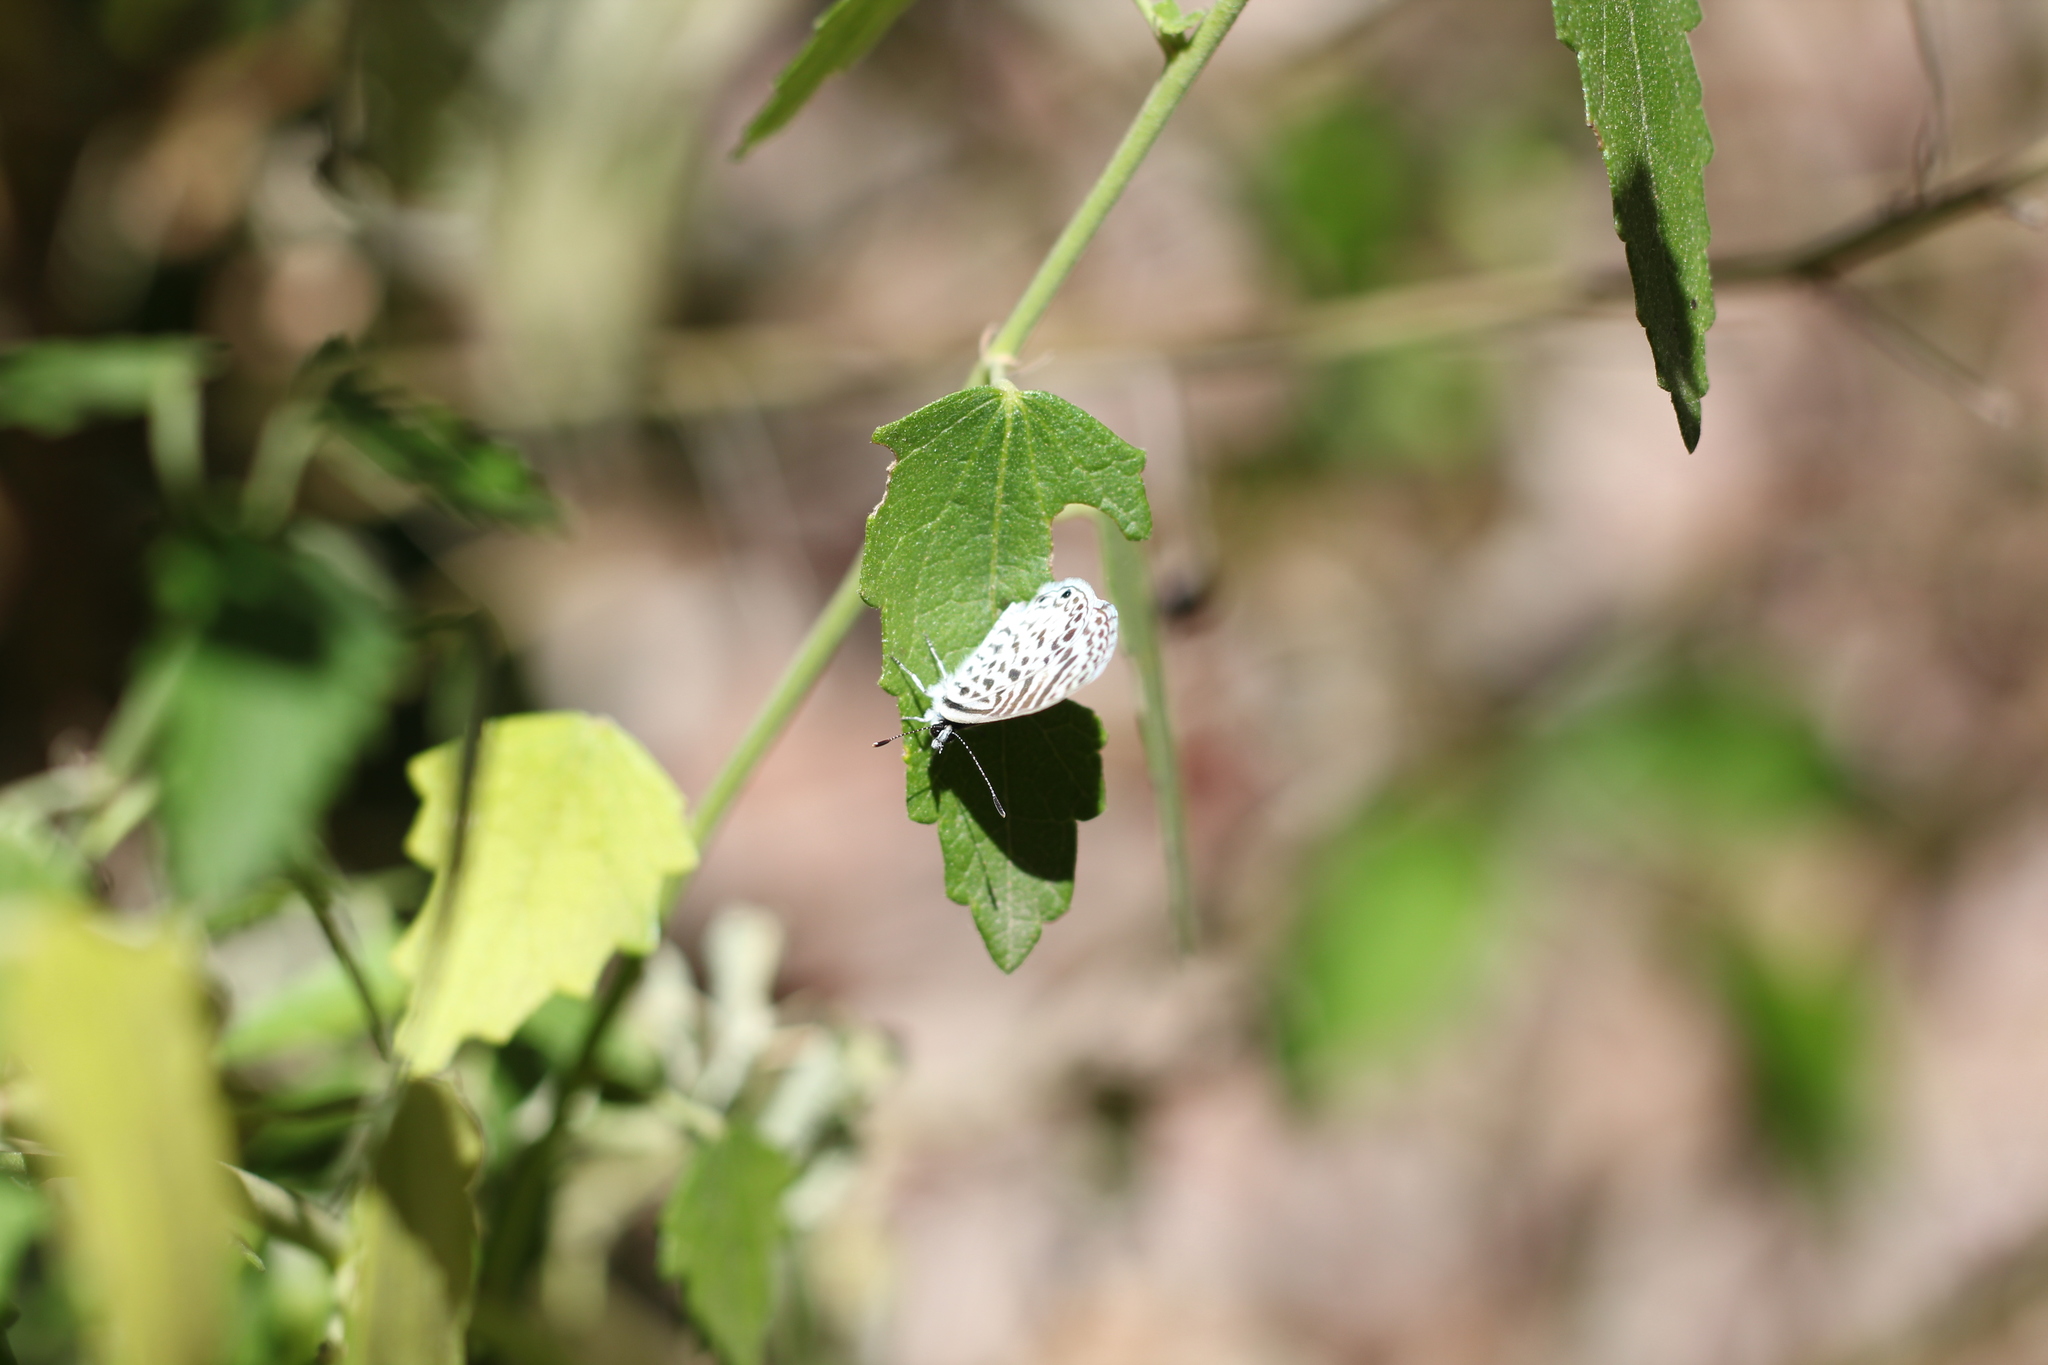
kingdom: Animalia
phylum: Arthropoda
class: Insecta
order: Lepidoptera
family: Lycaenidae
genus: Leptotes
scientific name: Leptotes cassius
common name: Cassius blue
